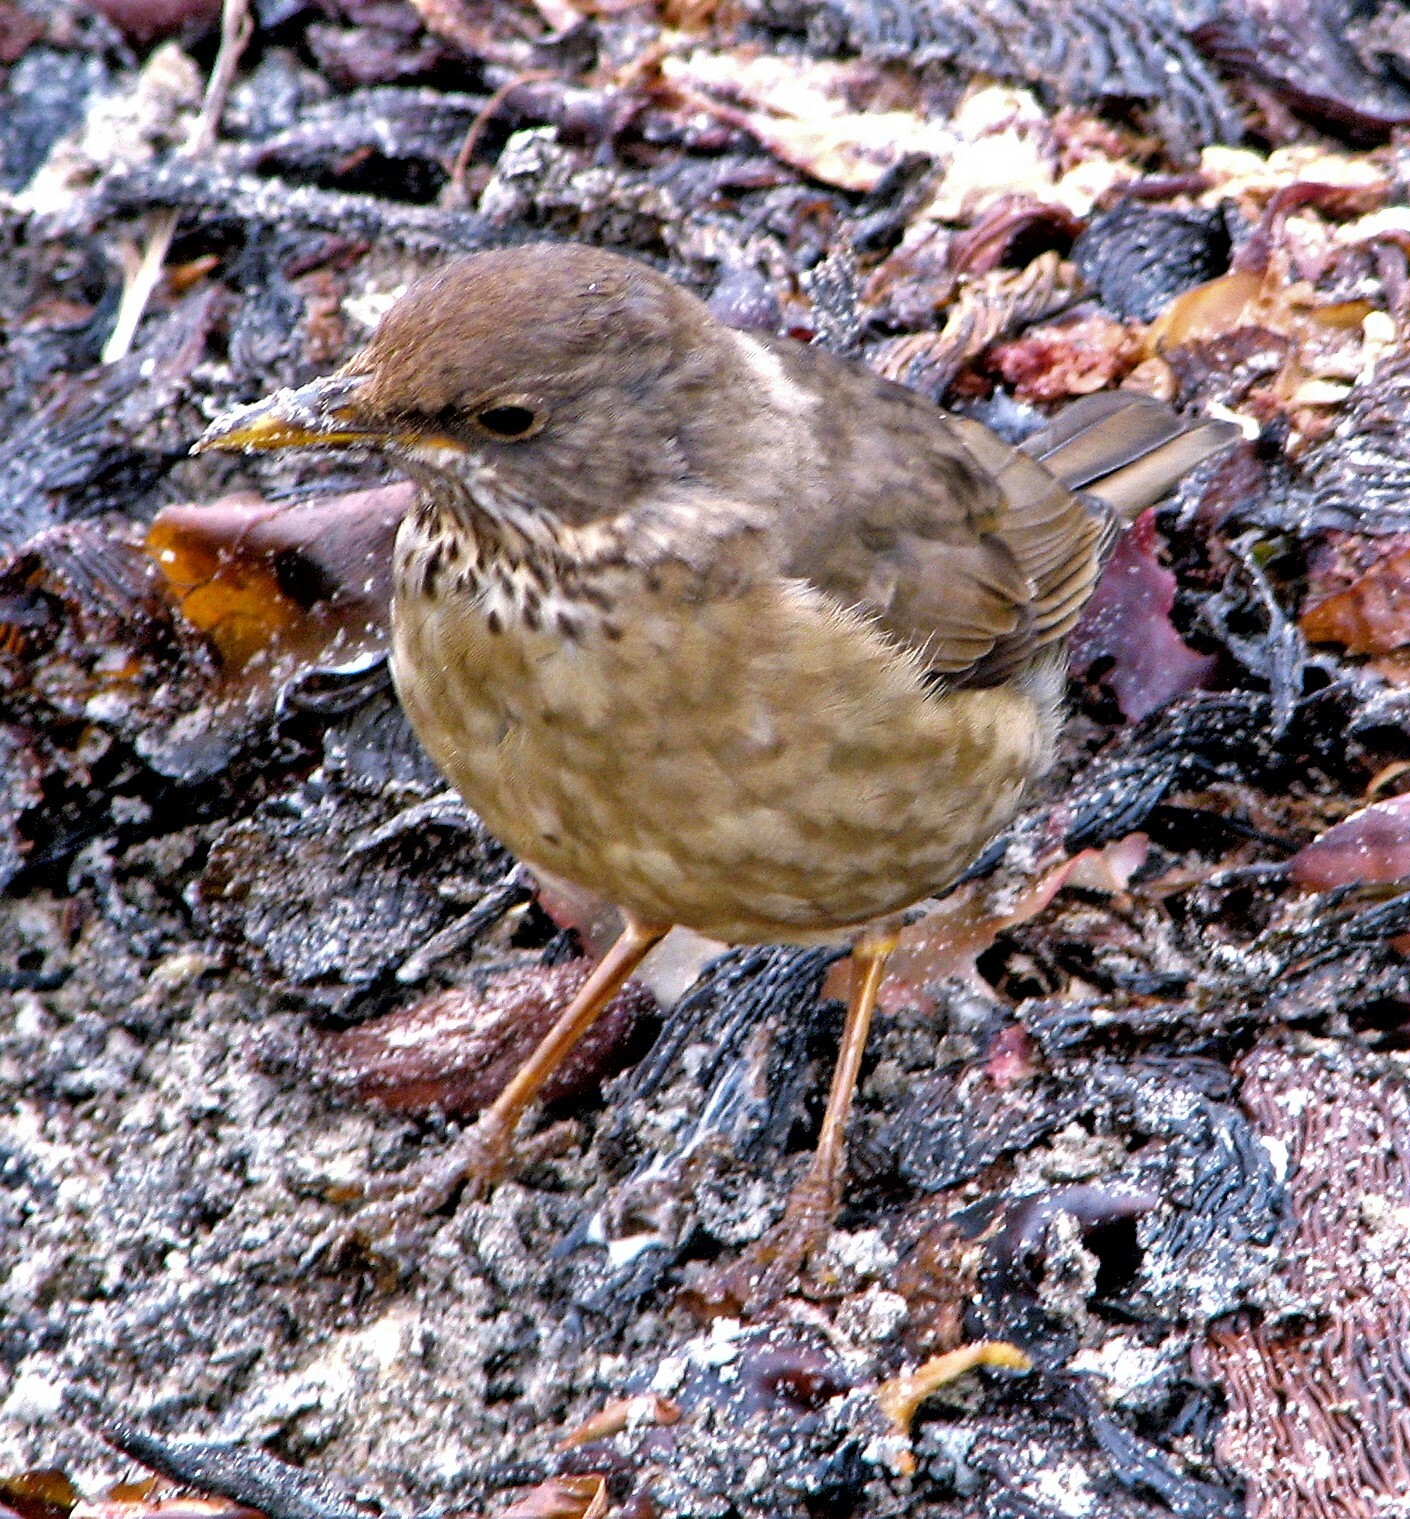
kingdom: Animalia
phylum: Chordata
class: Aves
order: Passeriformes
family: Turdidae
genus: Turdus
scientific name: Turdus falcklandii
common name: Austral thrush
